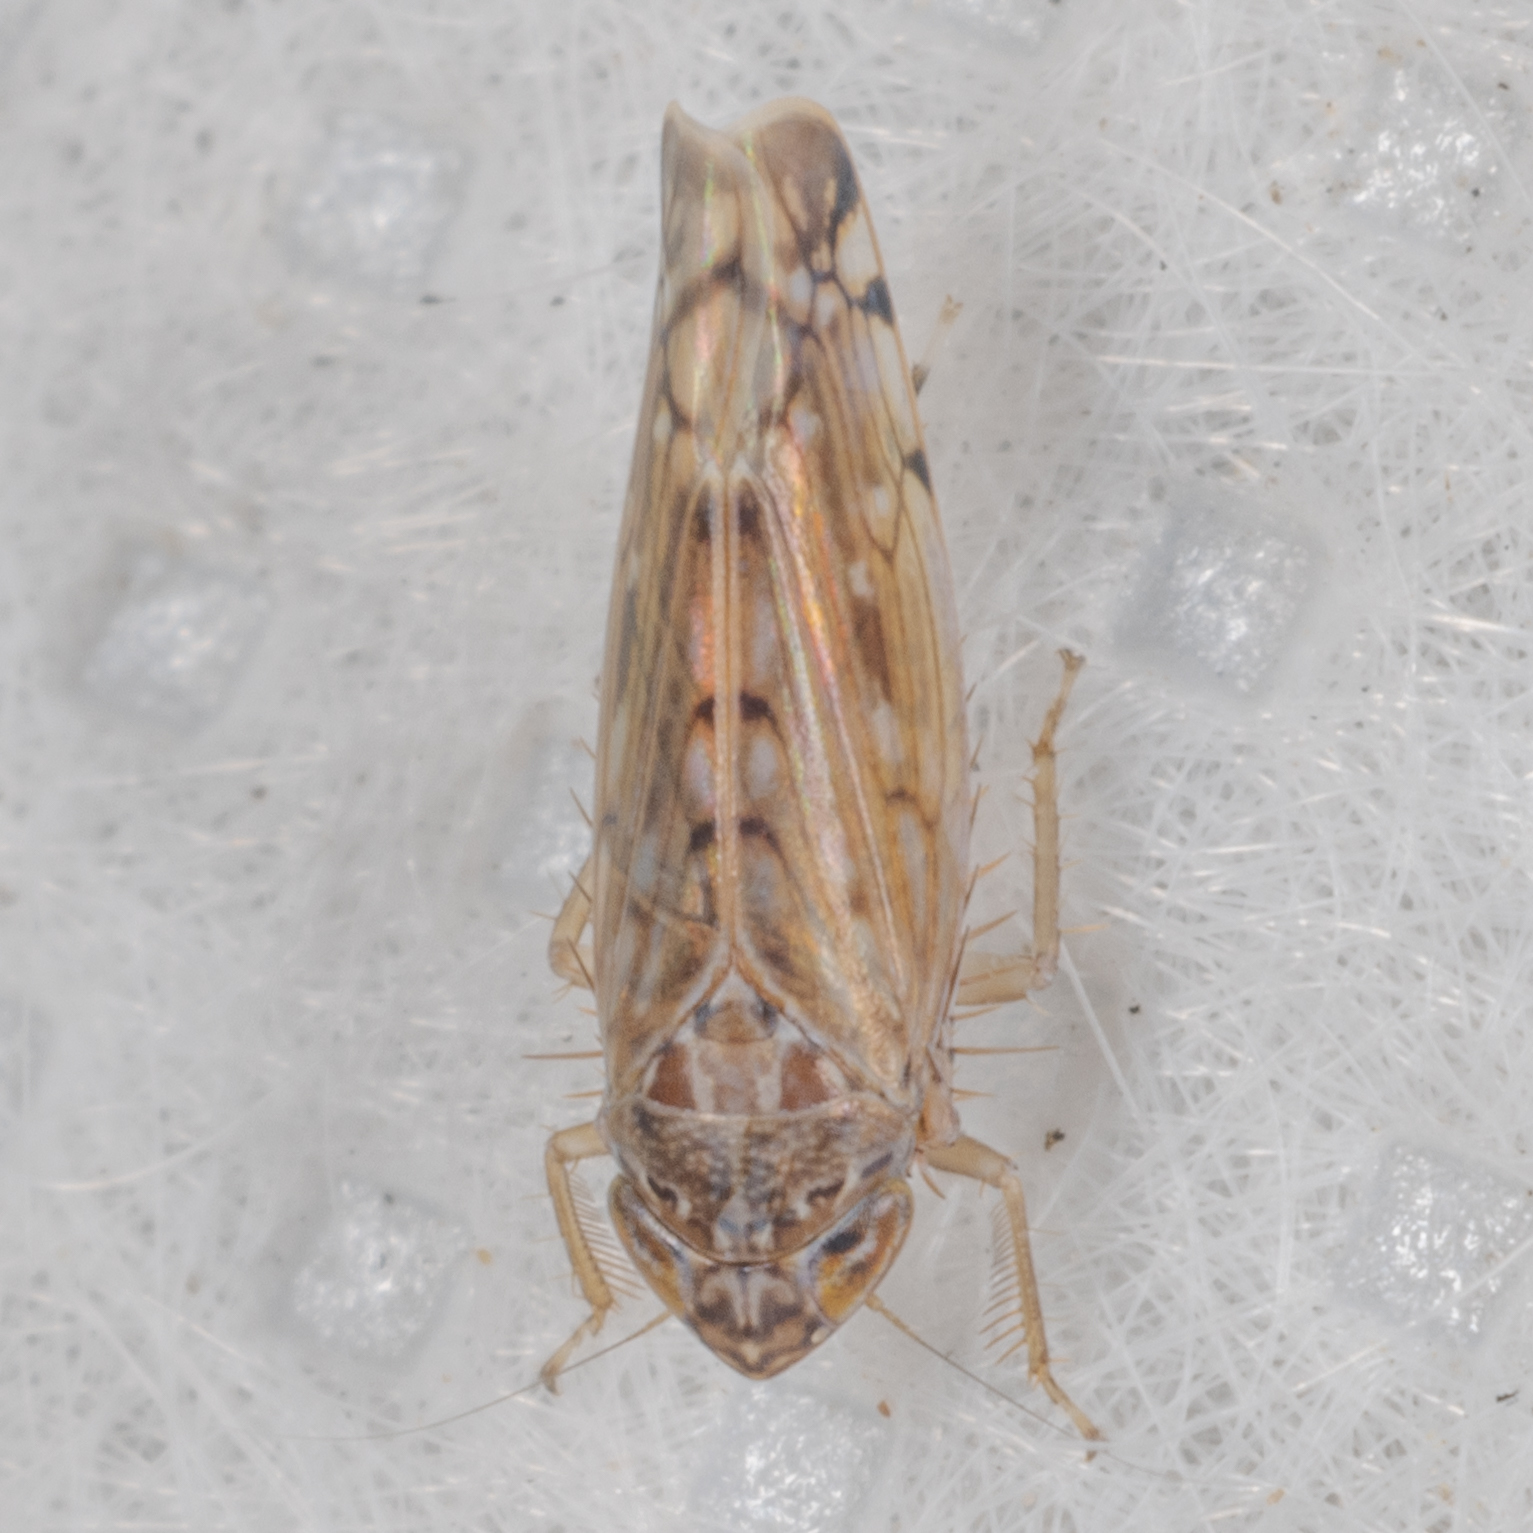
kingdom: Animalia
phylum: Arthropoda
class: Insecta
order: Hemiptera
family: Cicadellidae
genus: Osbornellus
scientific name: Osbornellus filamenta
